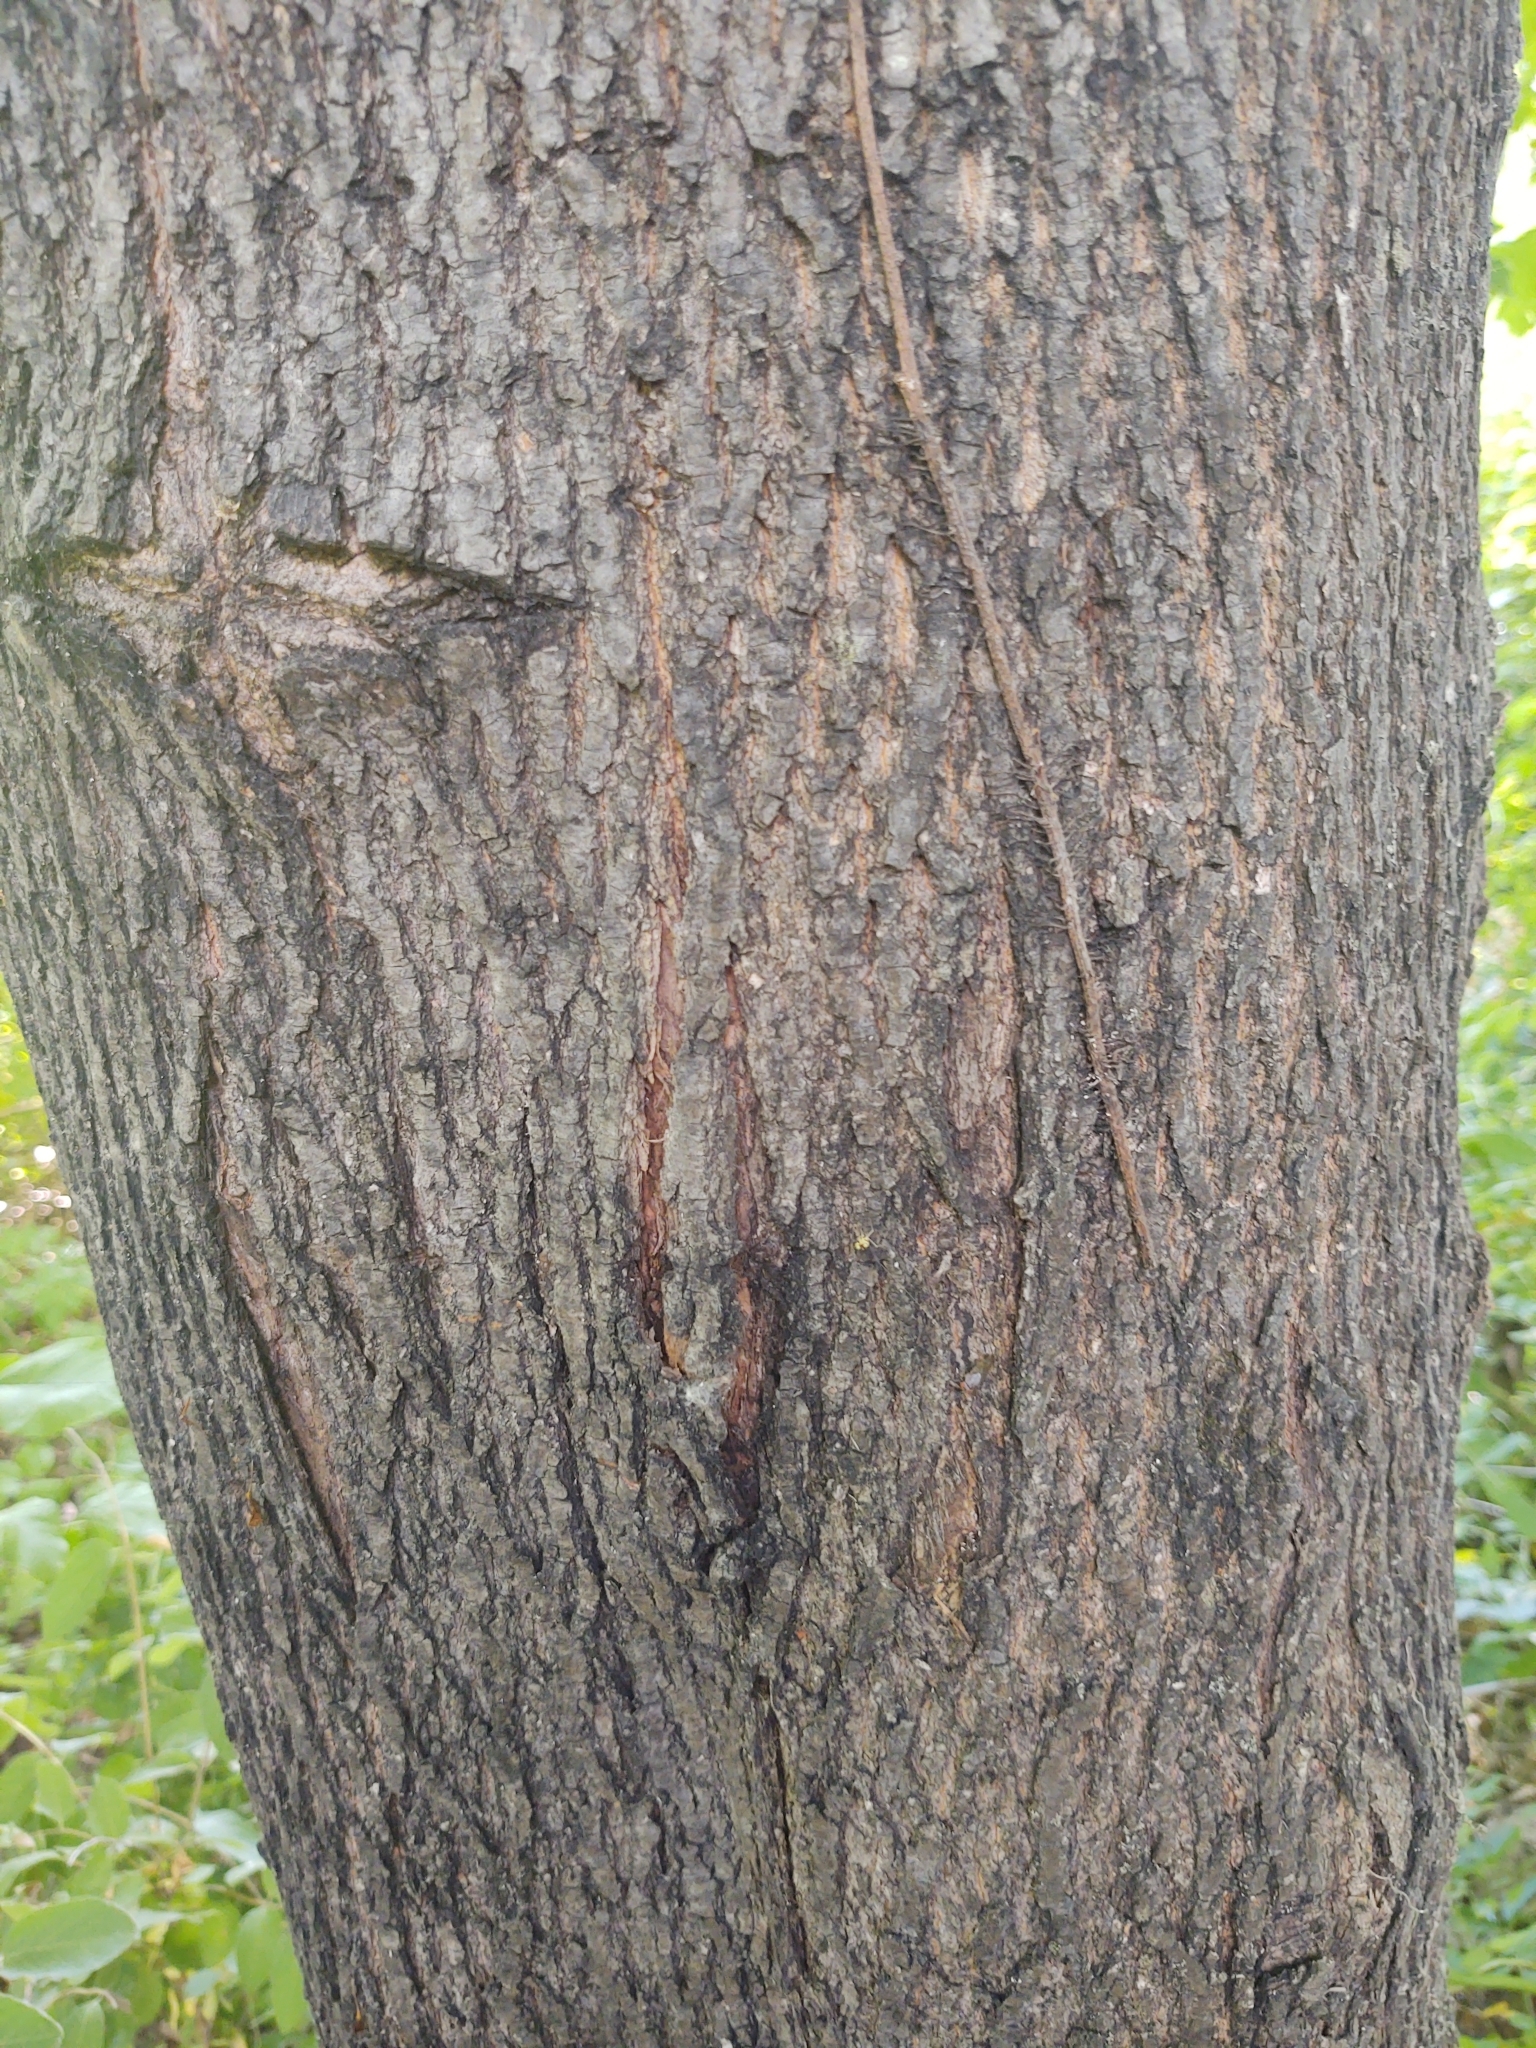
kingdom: Plantae
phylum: Tracheophyta
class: Magnoliopsida
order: Sapindales
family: Sapindaceae
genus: Acer
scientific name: Acer platanoides
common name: Norway maple
